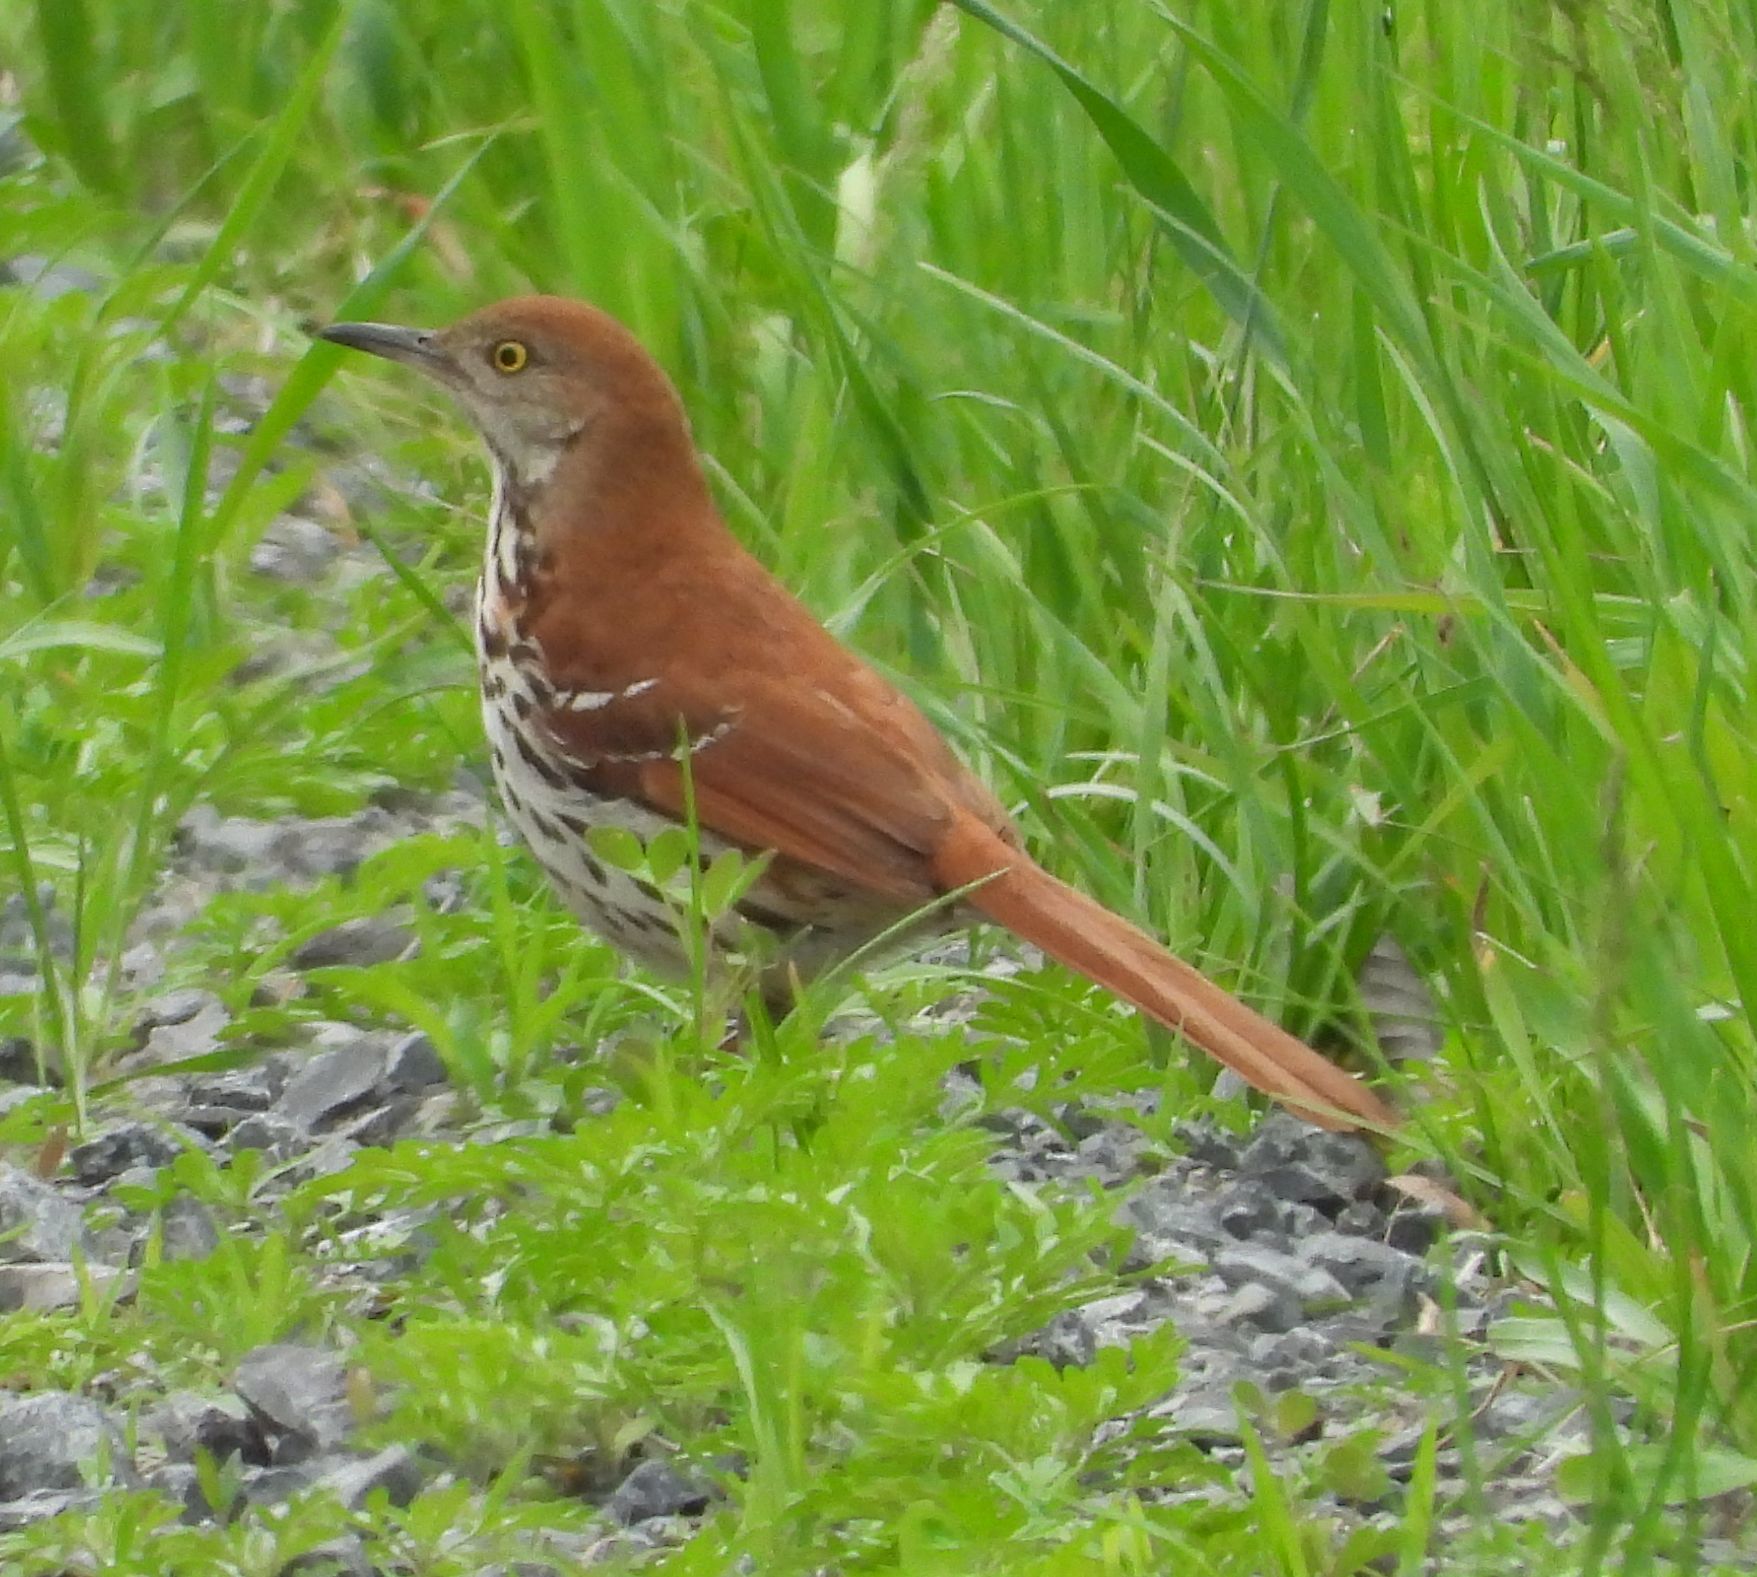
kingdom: Animalia
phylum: Chordata
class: Aves
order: Passeriformes
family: Mimidae
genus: Toxostoma
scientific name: Toxostoma rufum
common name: Brown thrasher
